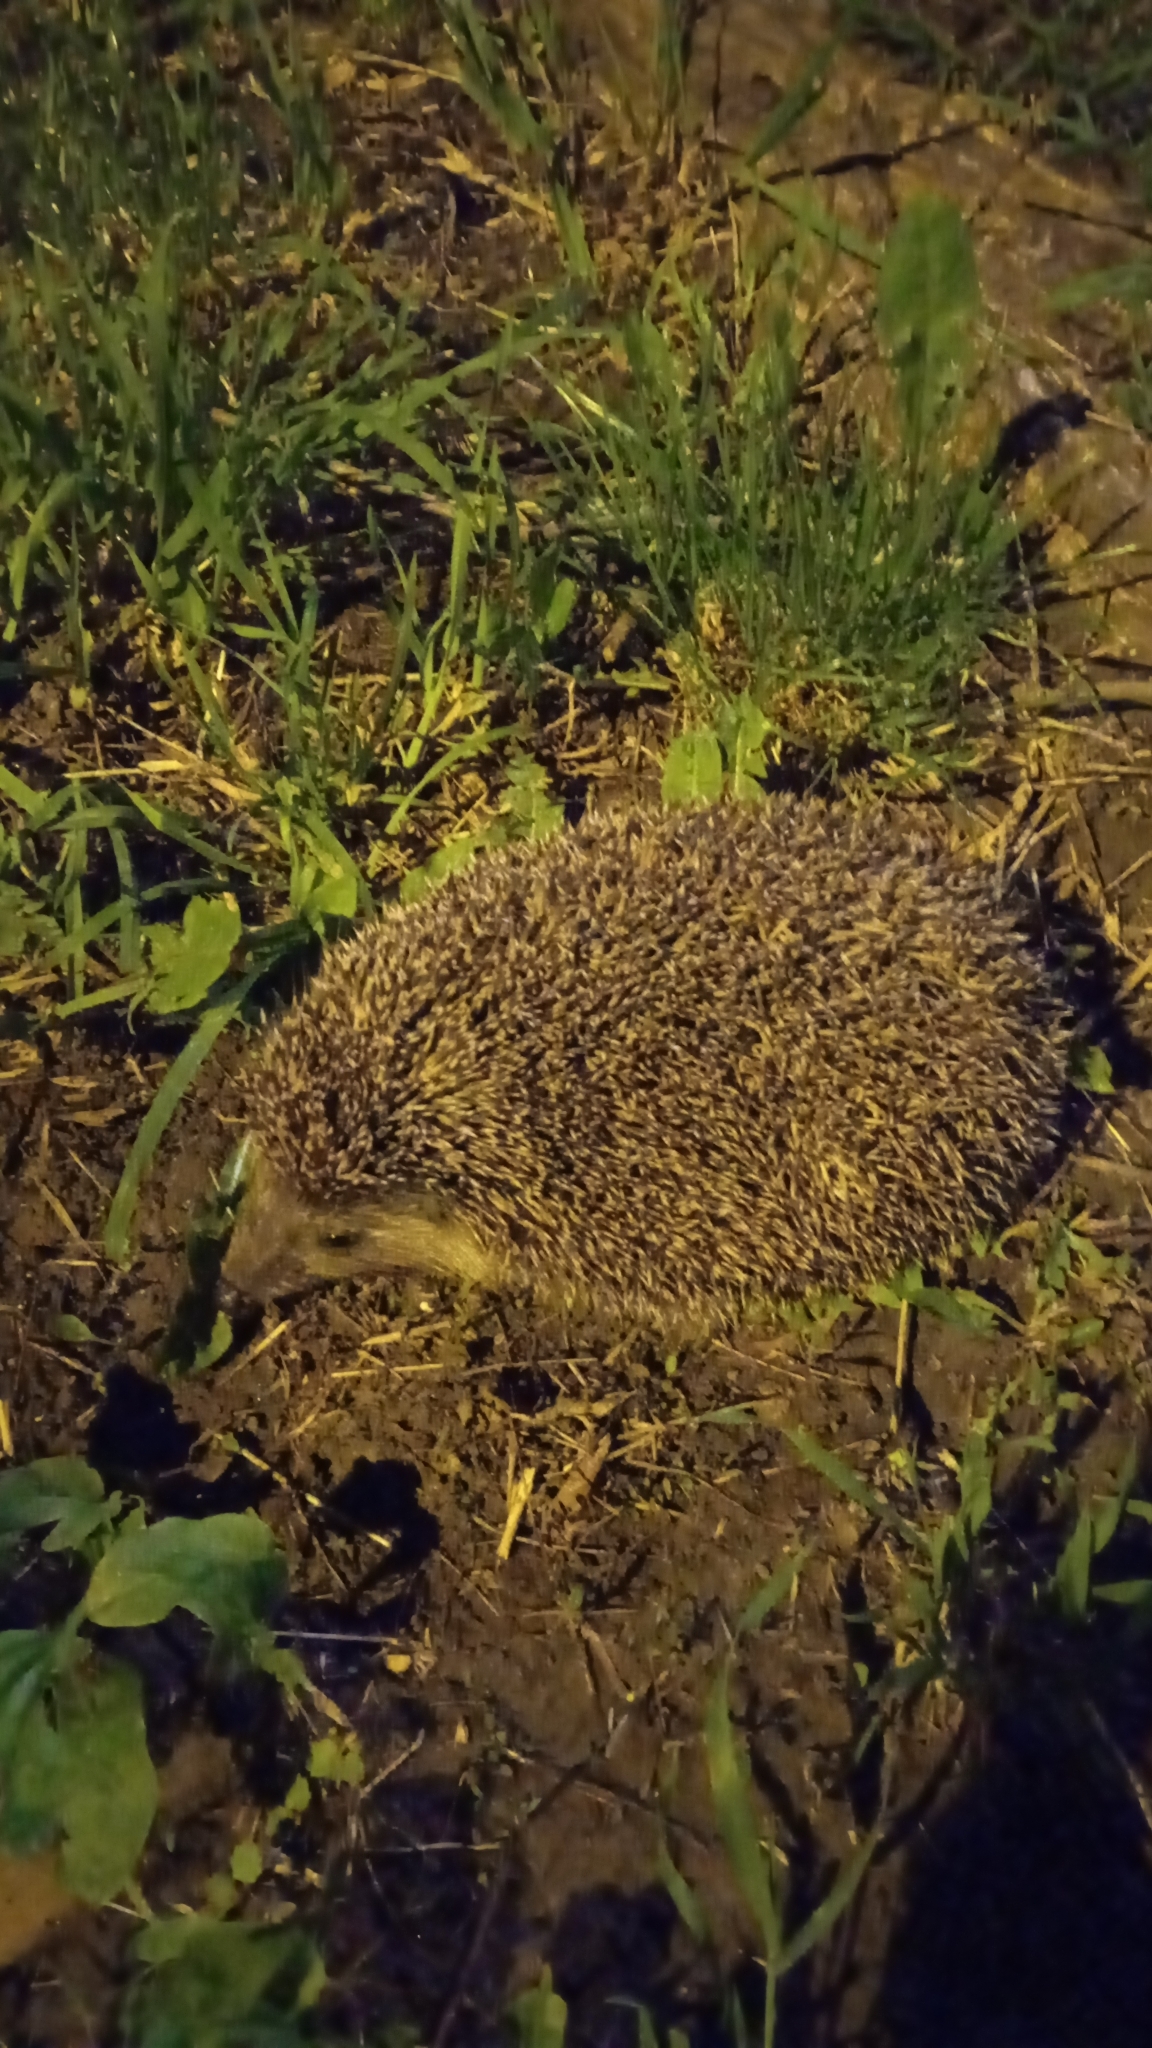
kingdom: Animalia
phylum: Chordata
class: Mammalia
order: Erinaceomorpha
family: Erinaceidae
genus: Erinaceus
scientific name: Erinaceus roumanicus
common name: Northern white-breasted hedgehog
